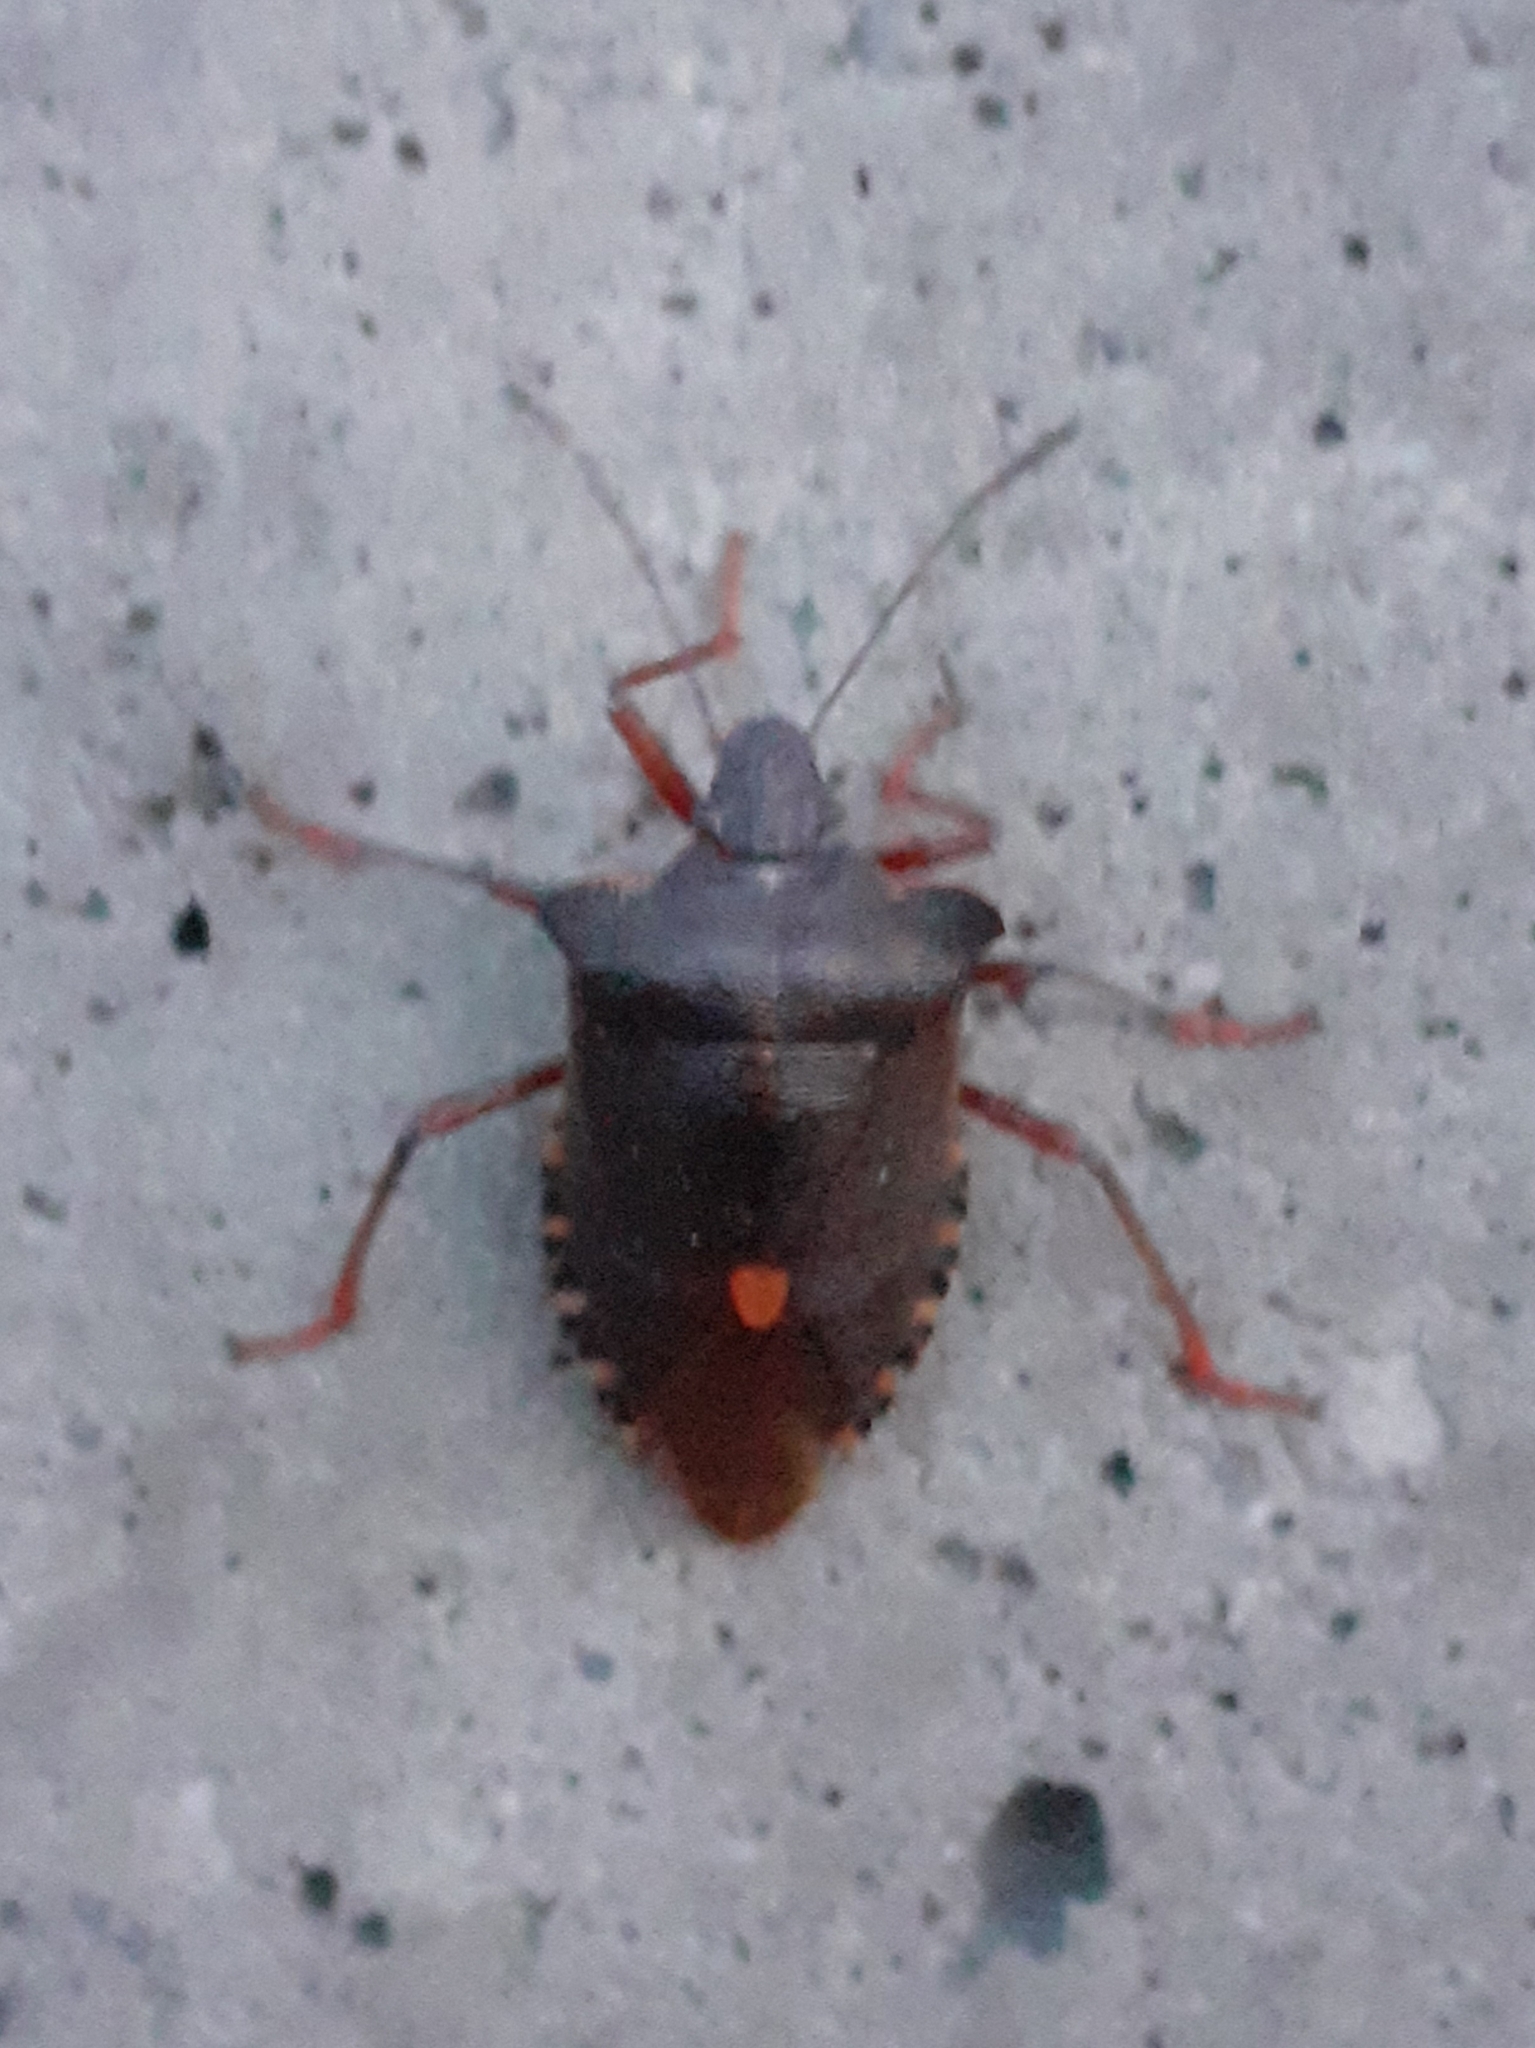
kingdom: Animalia
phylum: Arthropoda
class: Insecta
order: Hemiptera
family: Pentatomidae
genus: Pentatoma
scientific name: Pentatoma rufipes
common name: Forest bug
